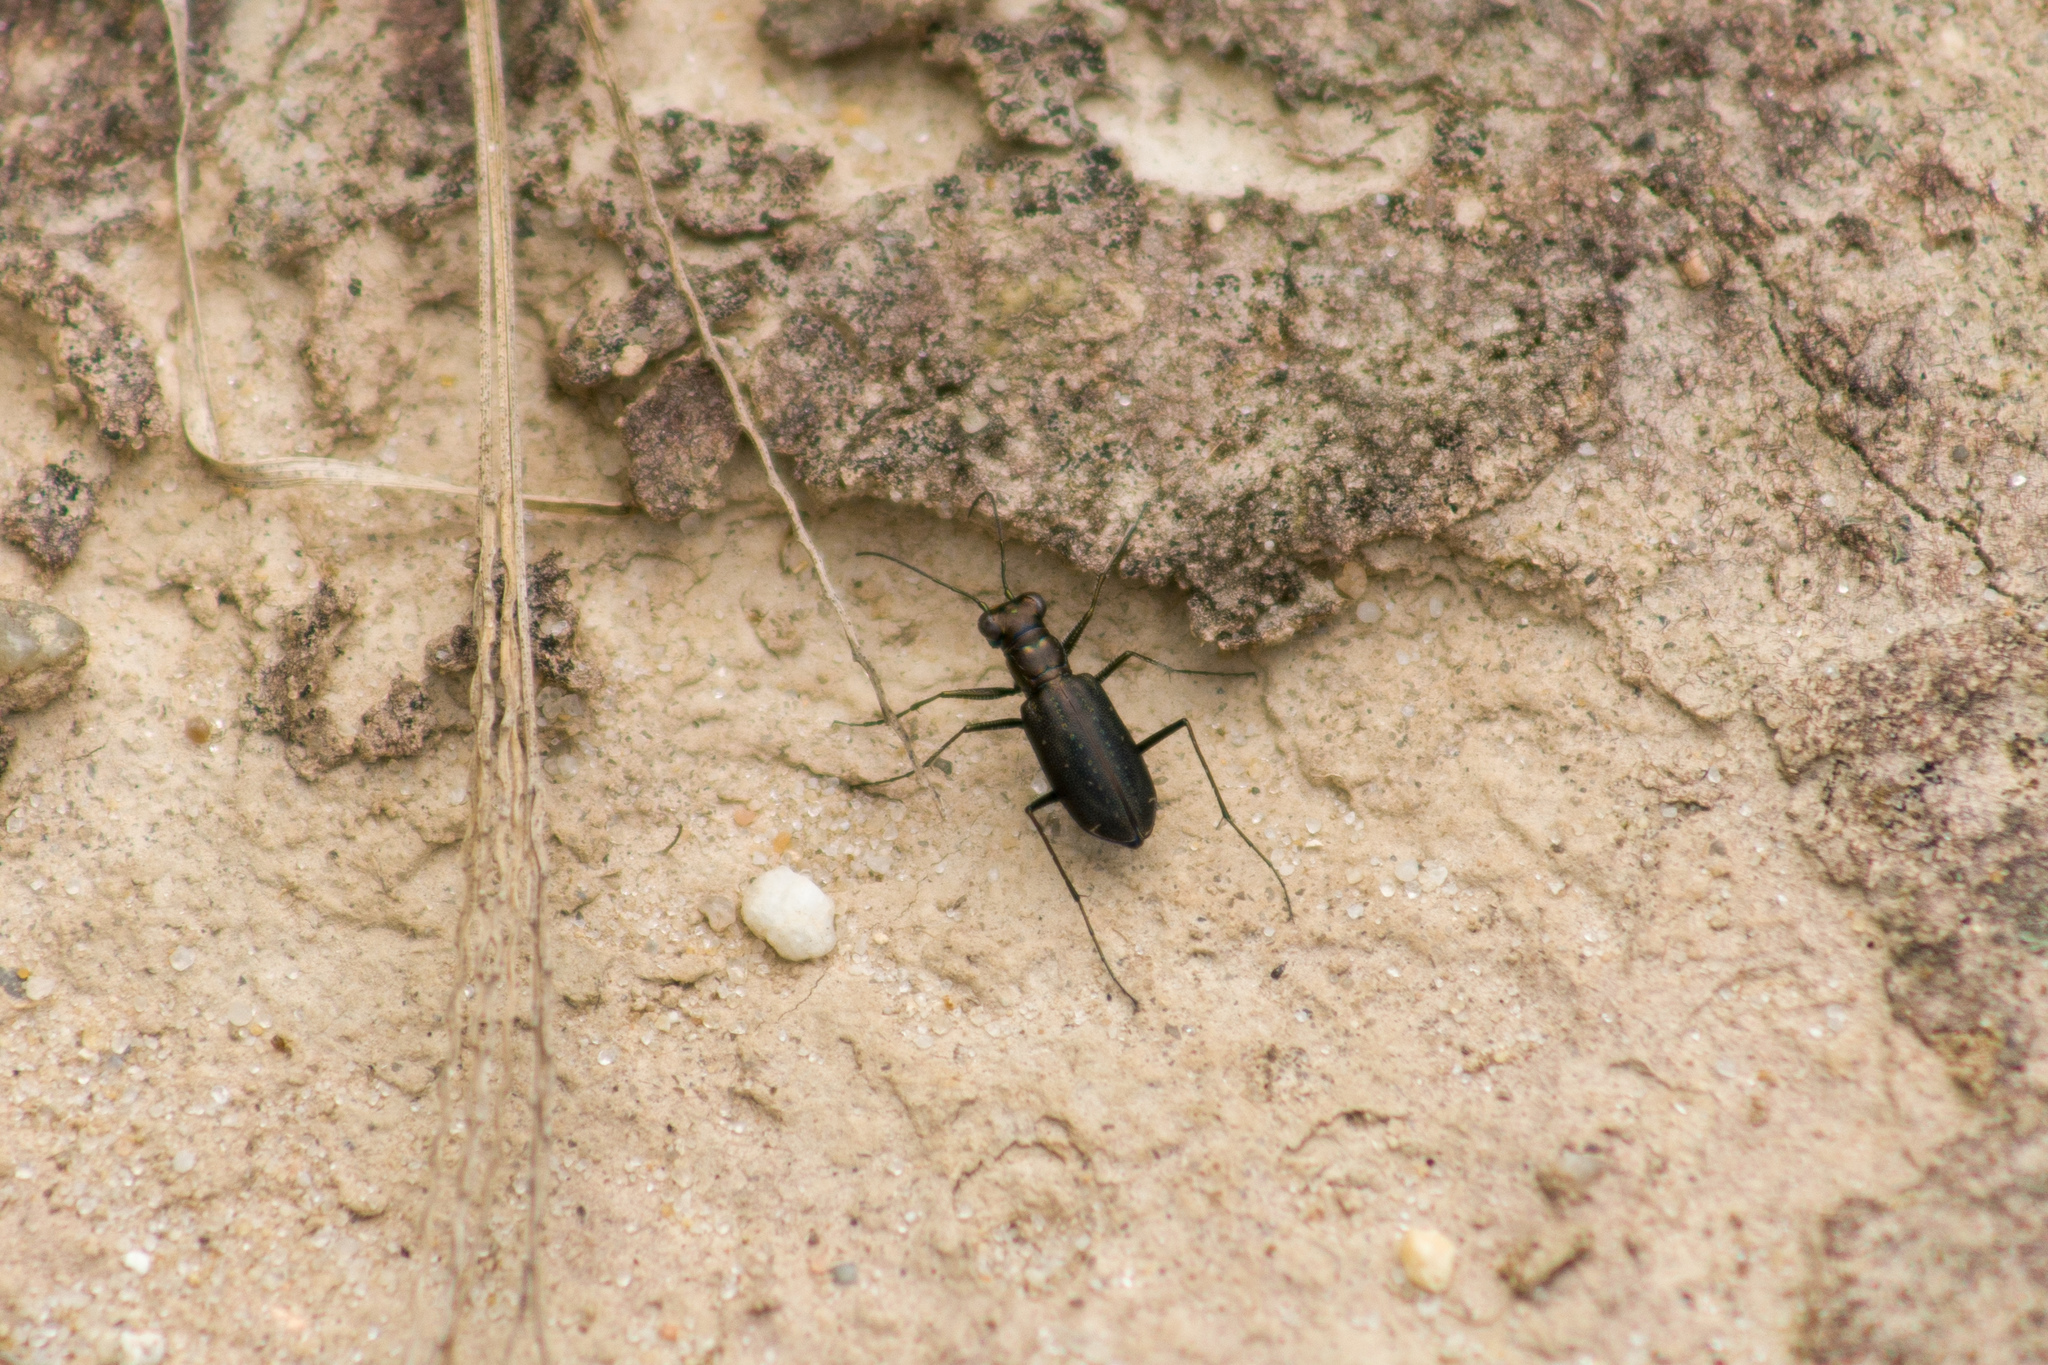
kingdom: Animalia
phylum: Arthropoda
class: Insecta
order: Coleoptera
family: Carabidae
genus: Cicindela
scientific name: Cicindela punctulata
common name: Punctured tiger beetle
